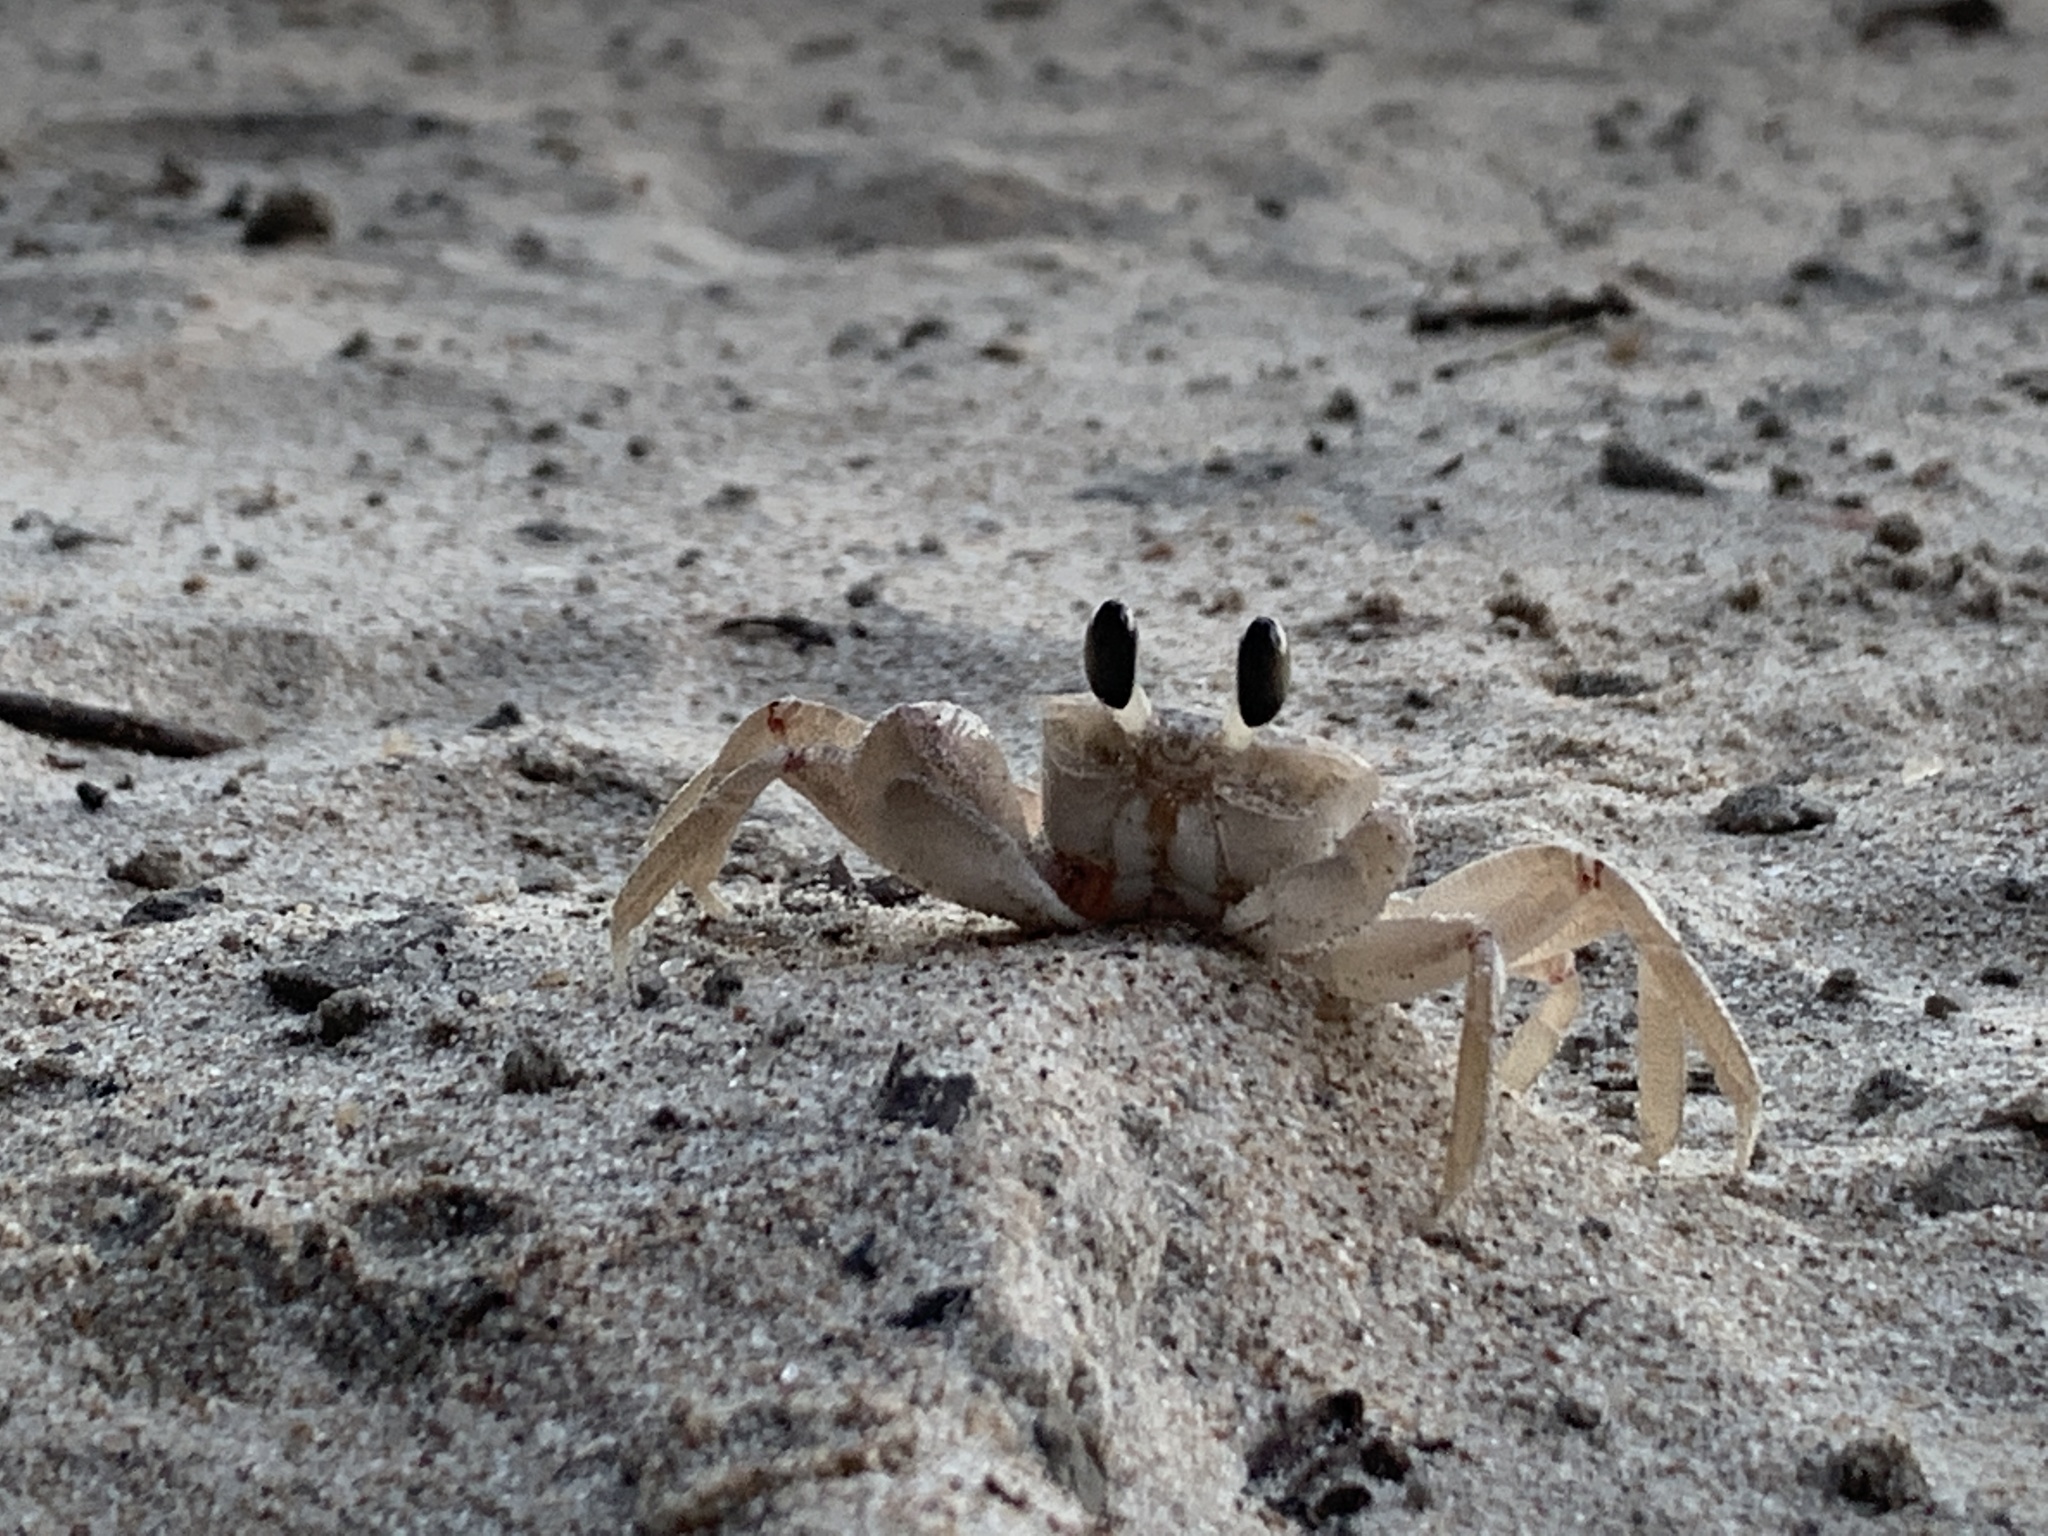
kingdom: Animalia
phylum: Arthropoda
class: Malacostraca
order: Decapoda
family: Ocypodidae
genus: Ocypode
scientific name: Ocypode ryderi
